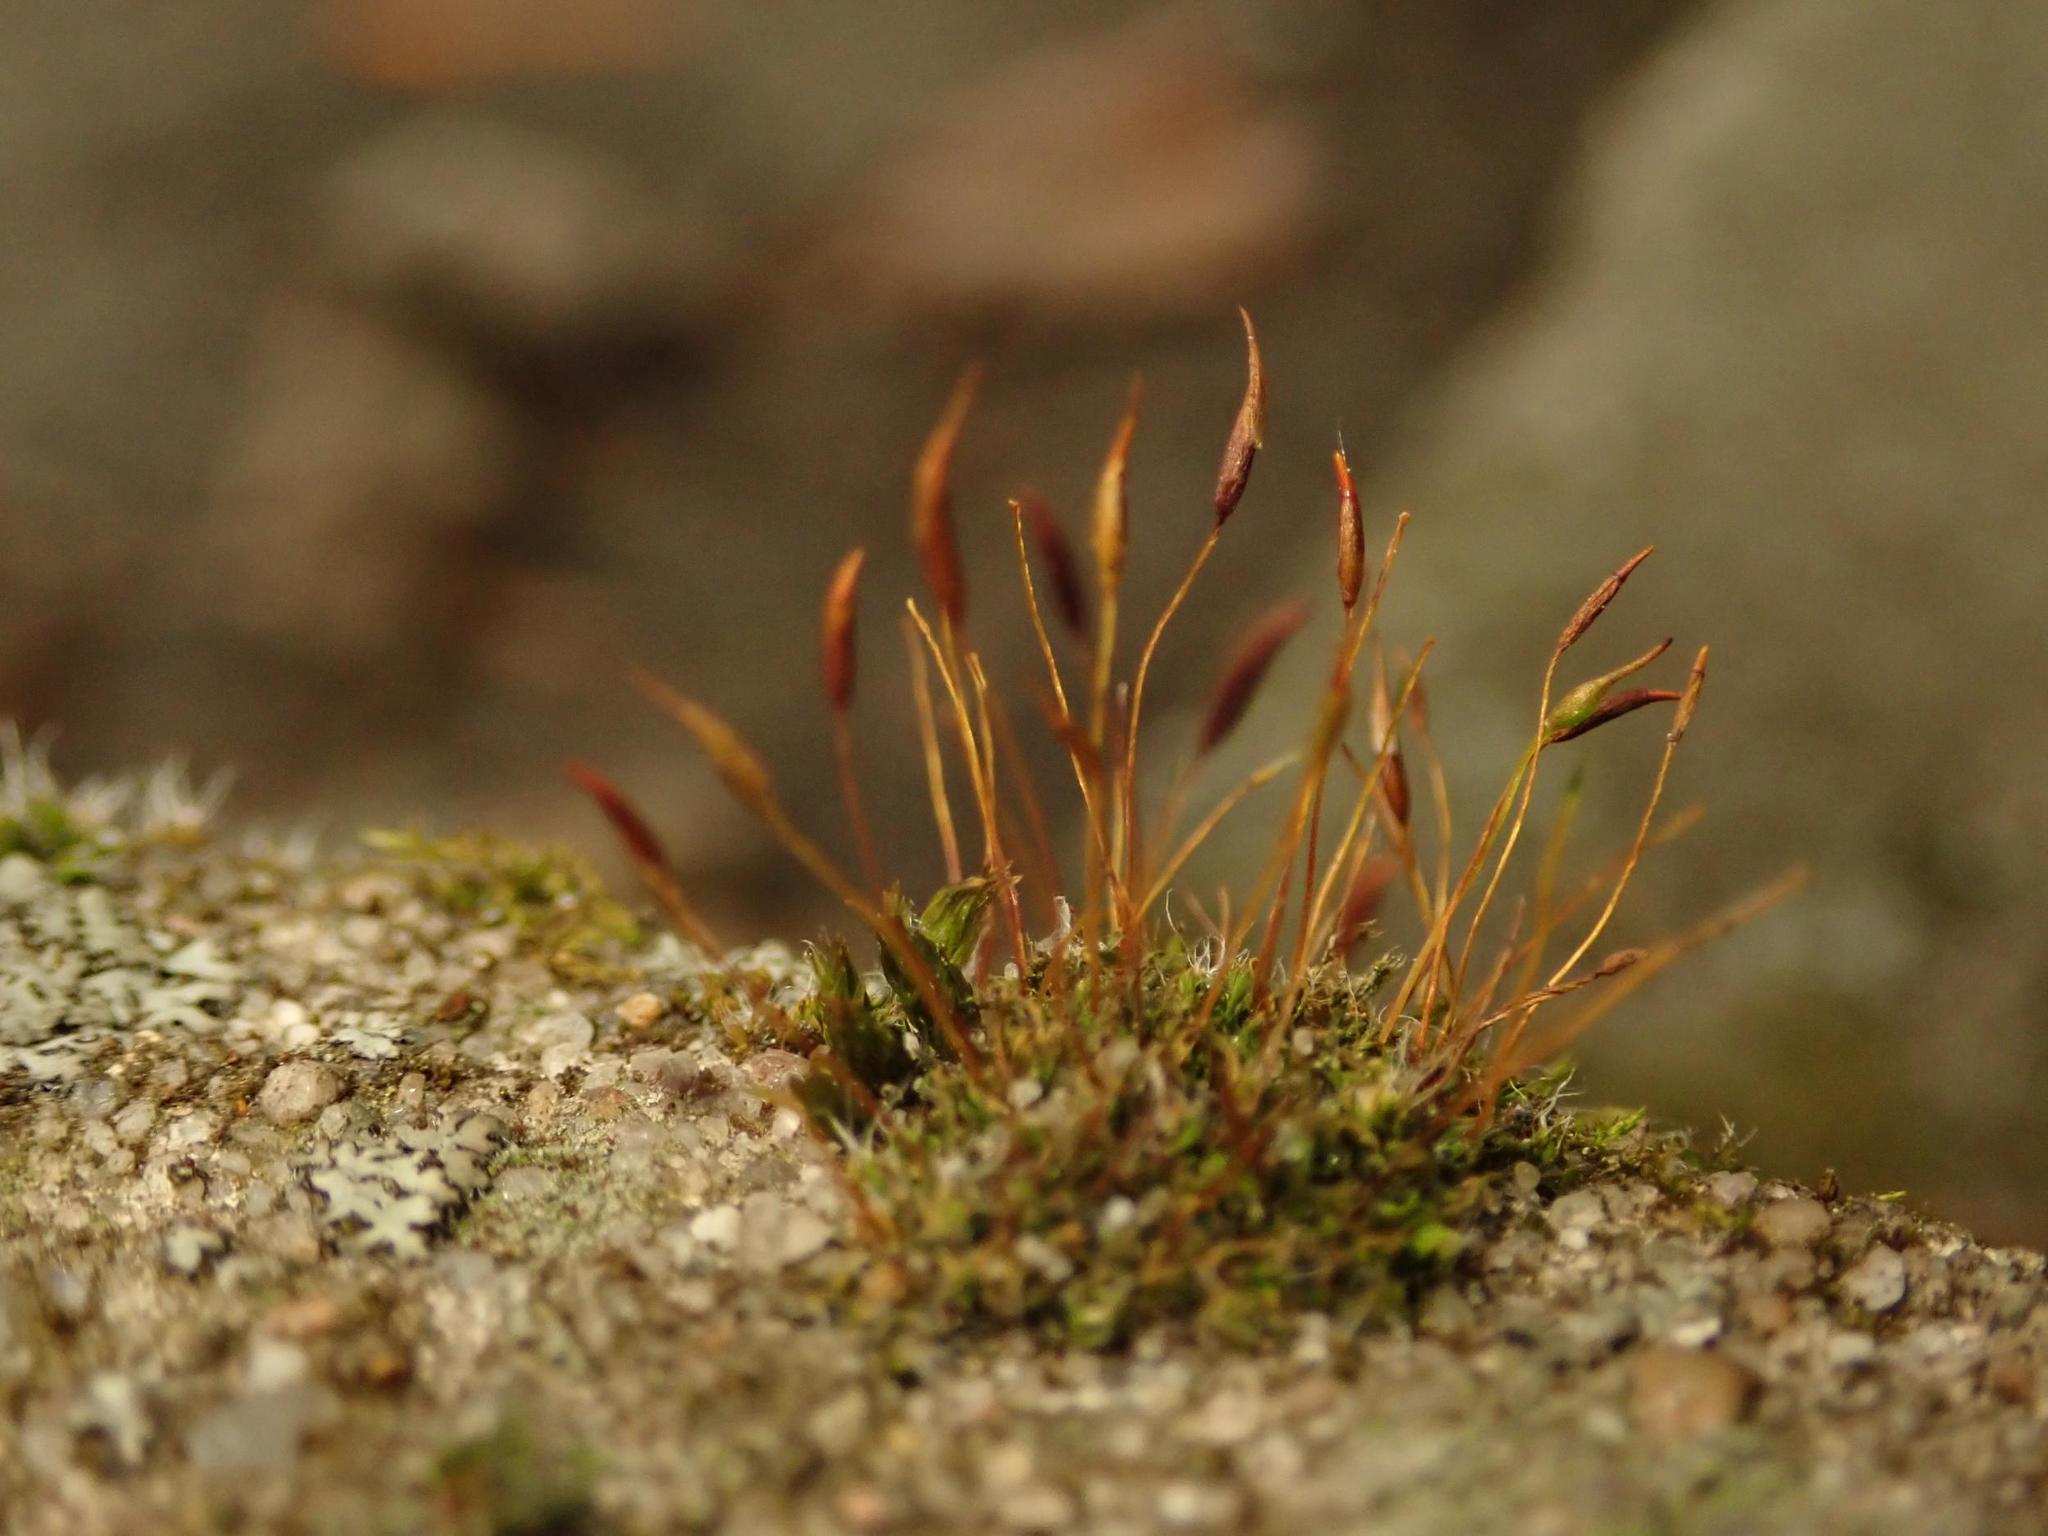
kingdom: Plantae
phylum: Bryophyta
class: Bryopsida
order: Pottiales
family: Pottiaceae
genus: Tortula
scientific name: Tortula muralis
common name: Wall screw-moss
